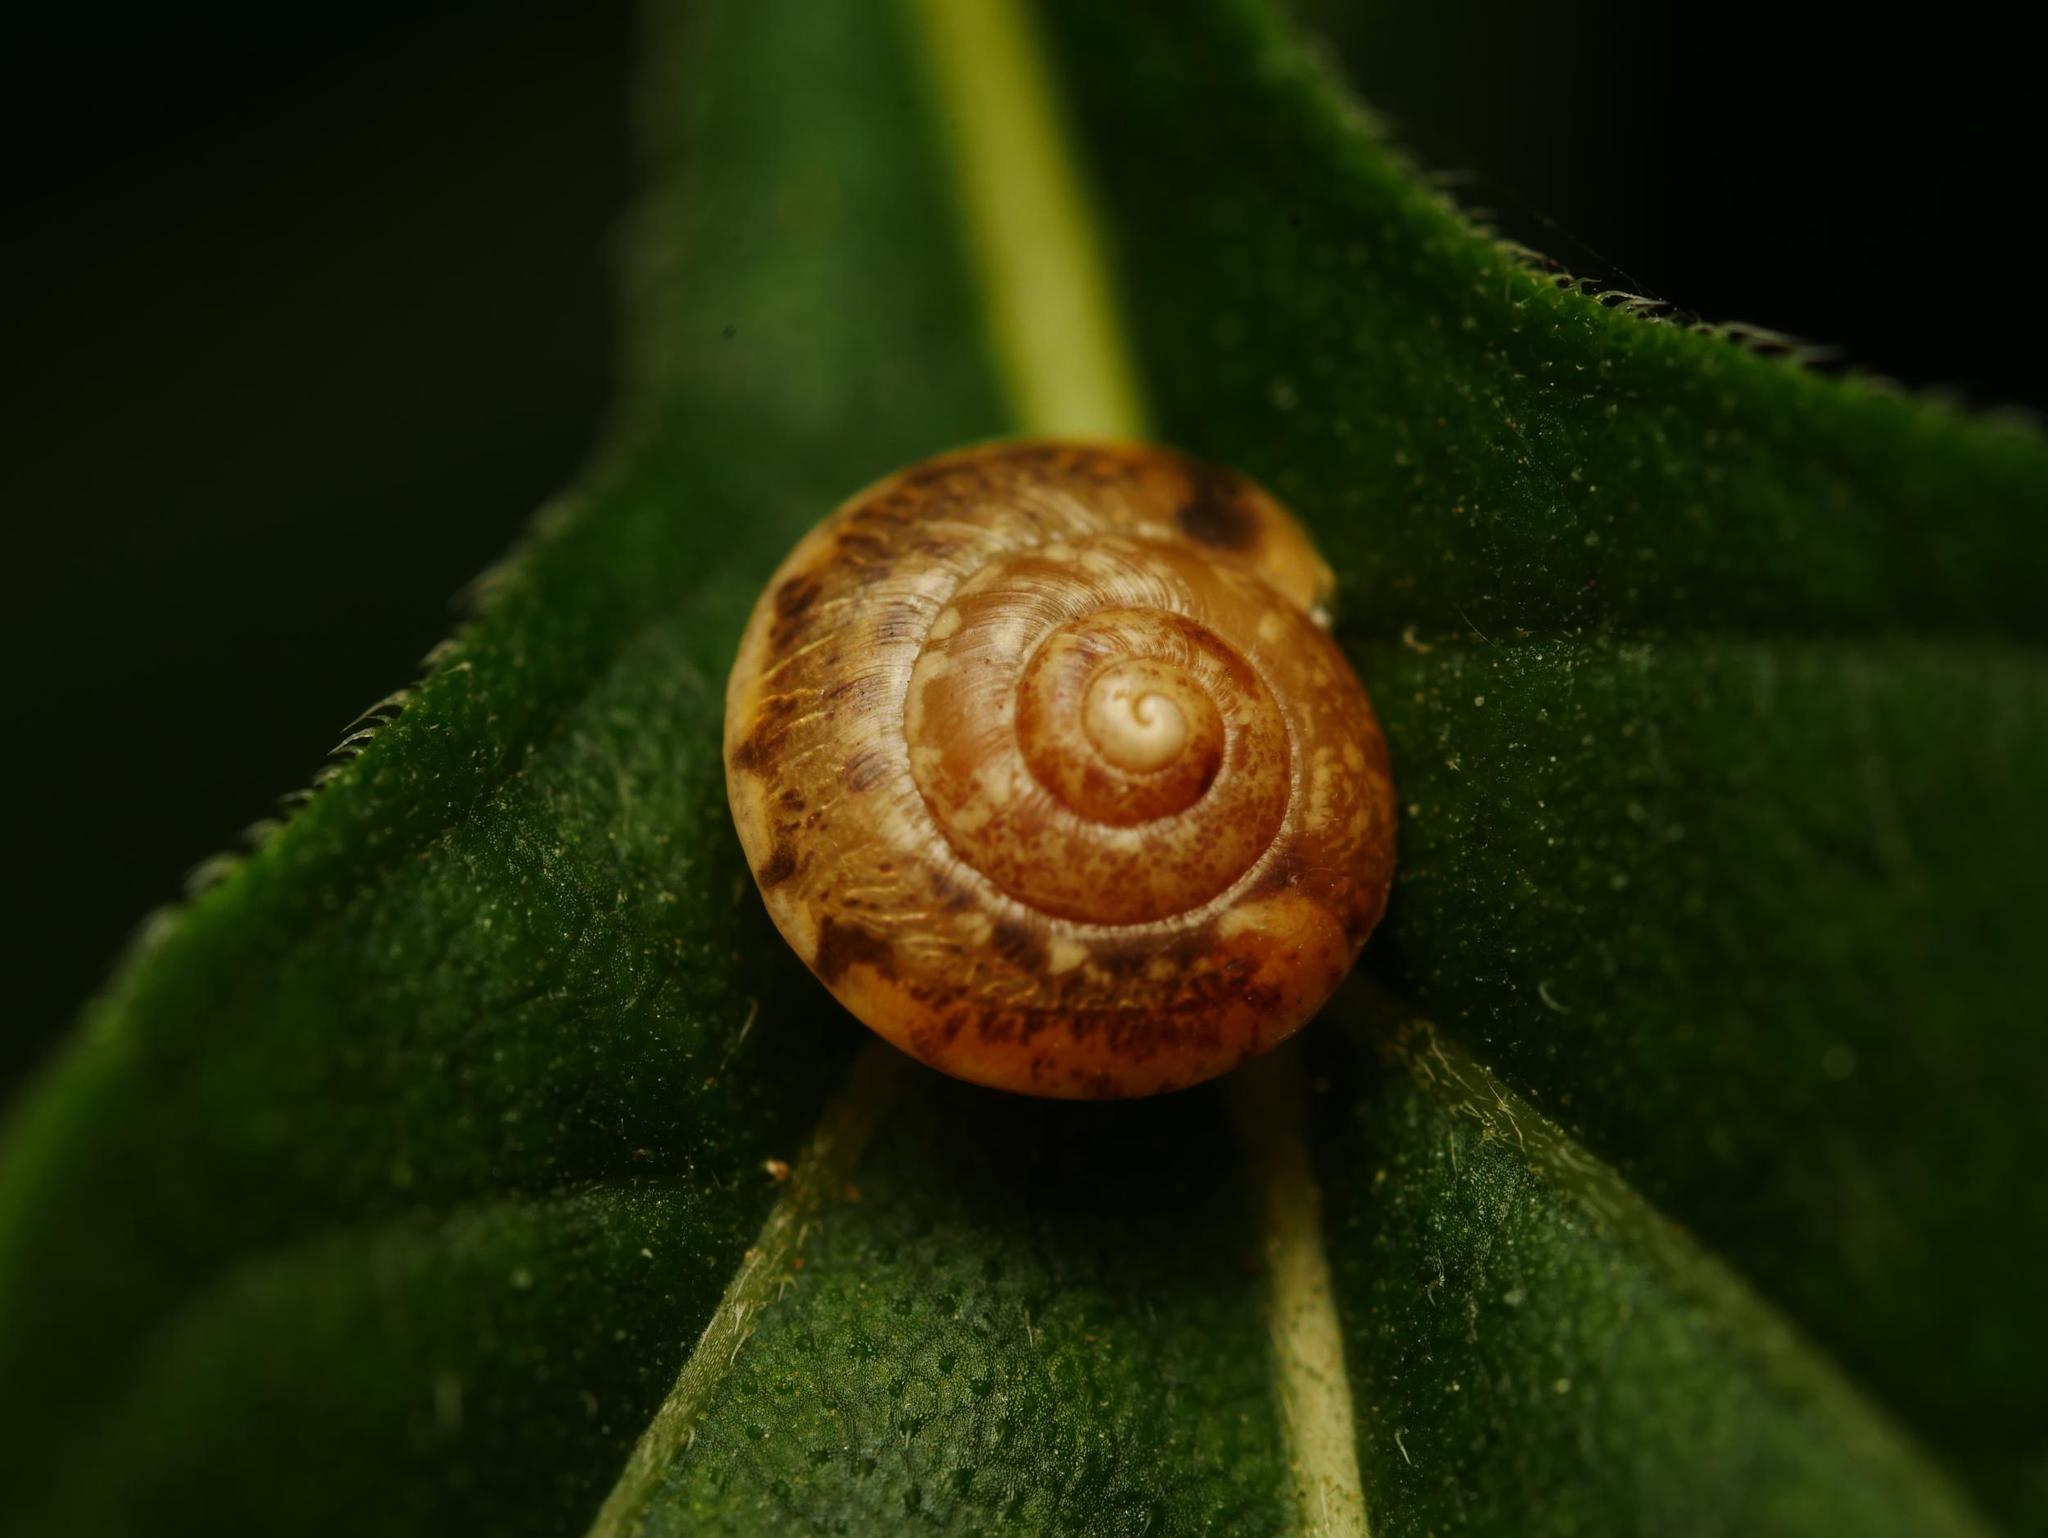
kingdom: Animalia
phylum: Mollusca
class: Gastropoda
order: Stylommatophora
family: Hygromiidae
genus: Hygromia
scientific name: Hygromia cinctella
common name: Girdled snail
